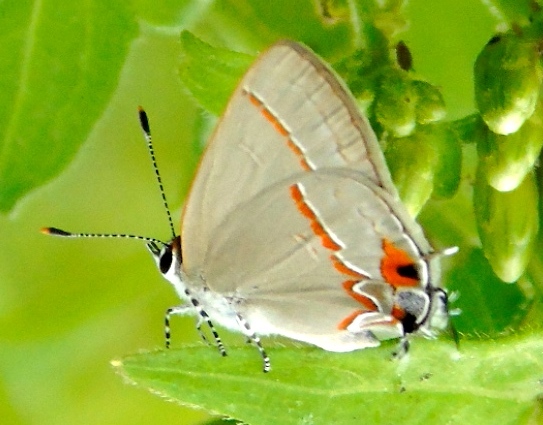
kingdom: Animalia
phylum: Arthropoda
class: Insecta
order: Lepidoptera
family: Lycaenidae
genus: Electrostrymon
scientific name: Electrostrymon endymion
